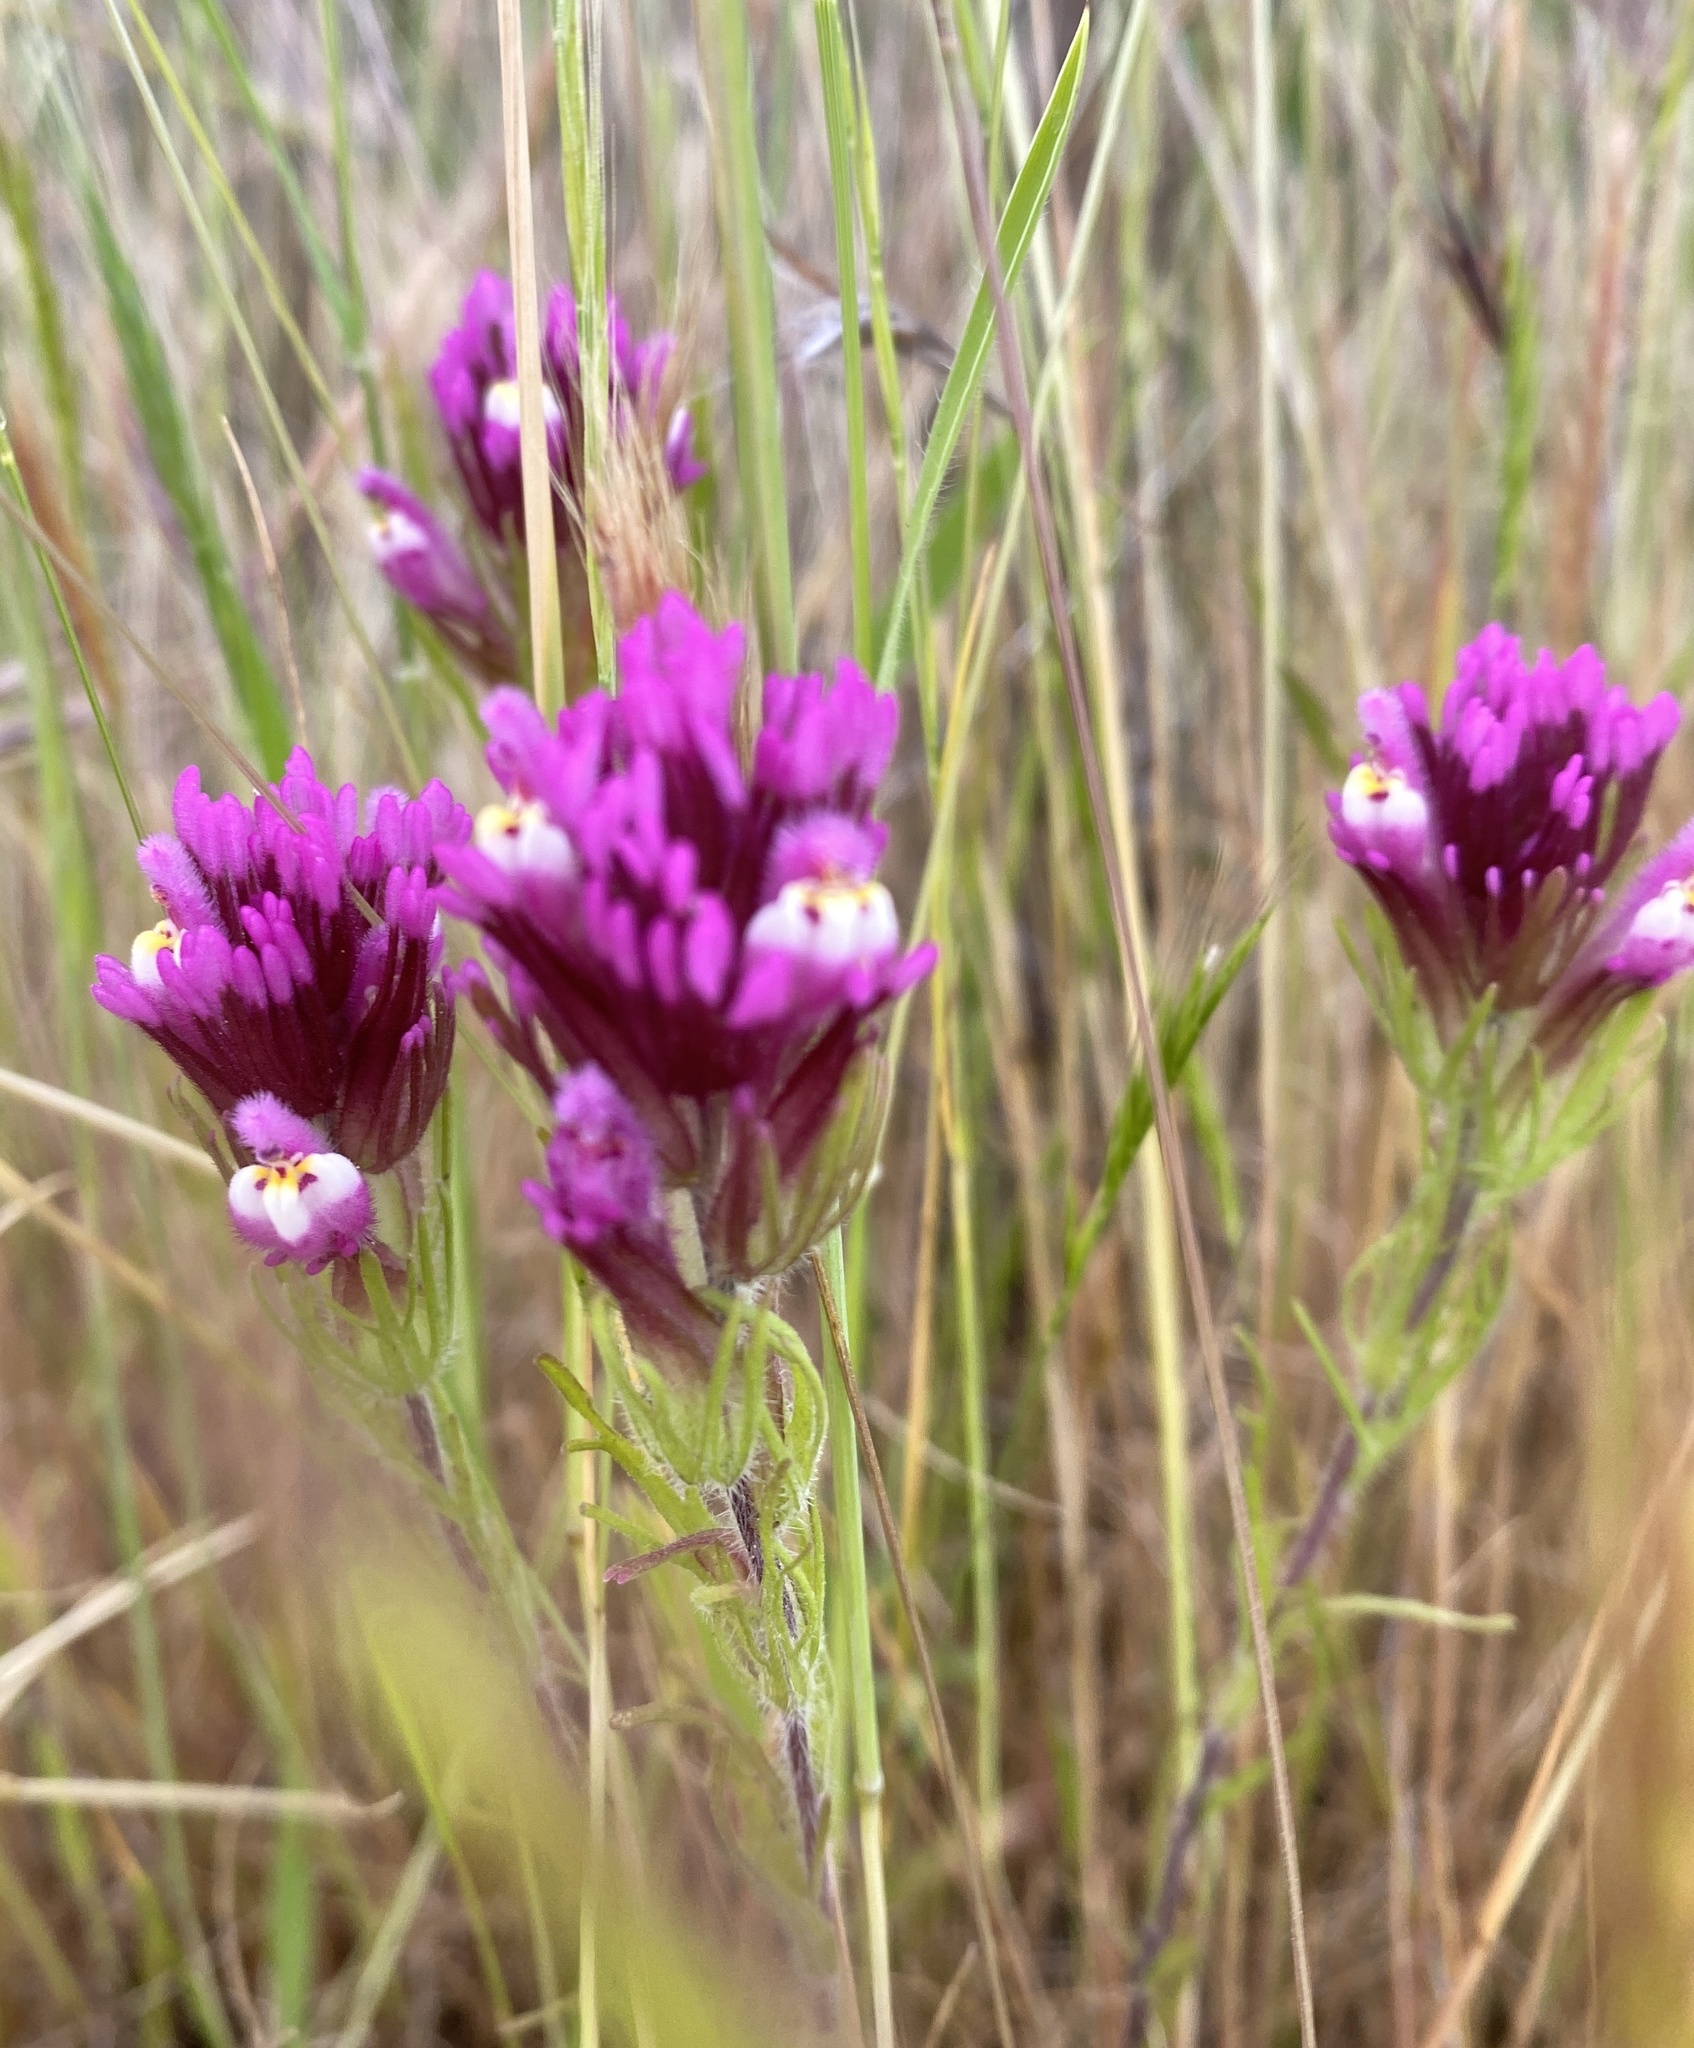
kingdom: Plantae
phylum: Tracheophyta
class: Magnoliopsida
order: Lamiales
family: Orobanchaceae
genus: Castilleja
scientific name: Castilleja exserta
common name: Purple owl-clover
